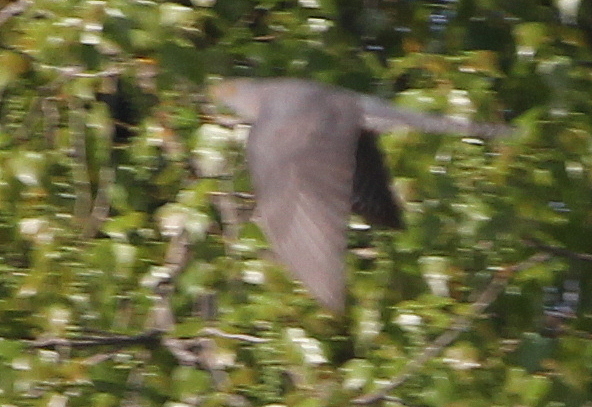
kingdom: Animalia
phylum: Chordata
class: Aves
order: Cuculiformes
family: Cuculidae
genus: Cuculus
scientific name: Cuculus canorus
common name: Common cuckoo
